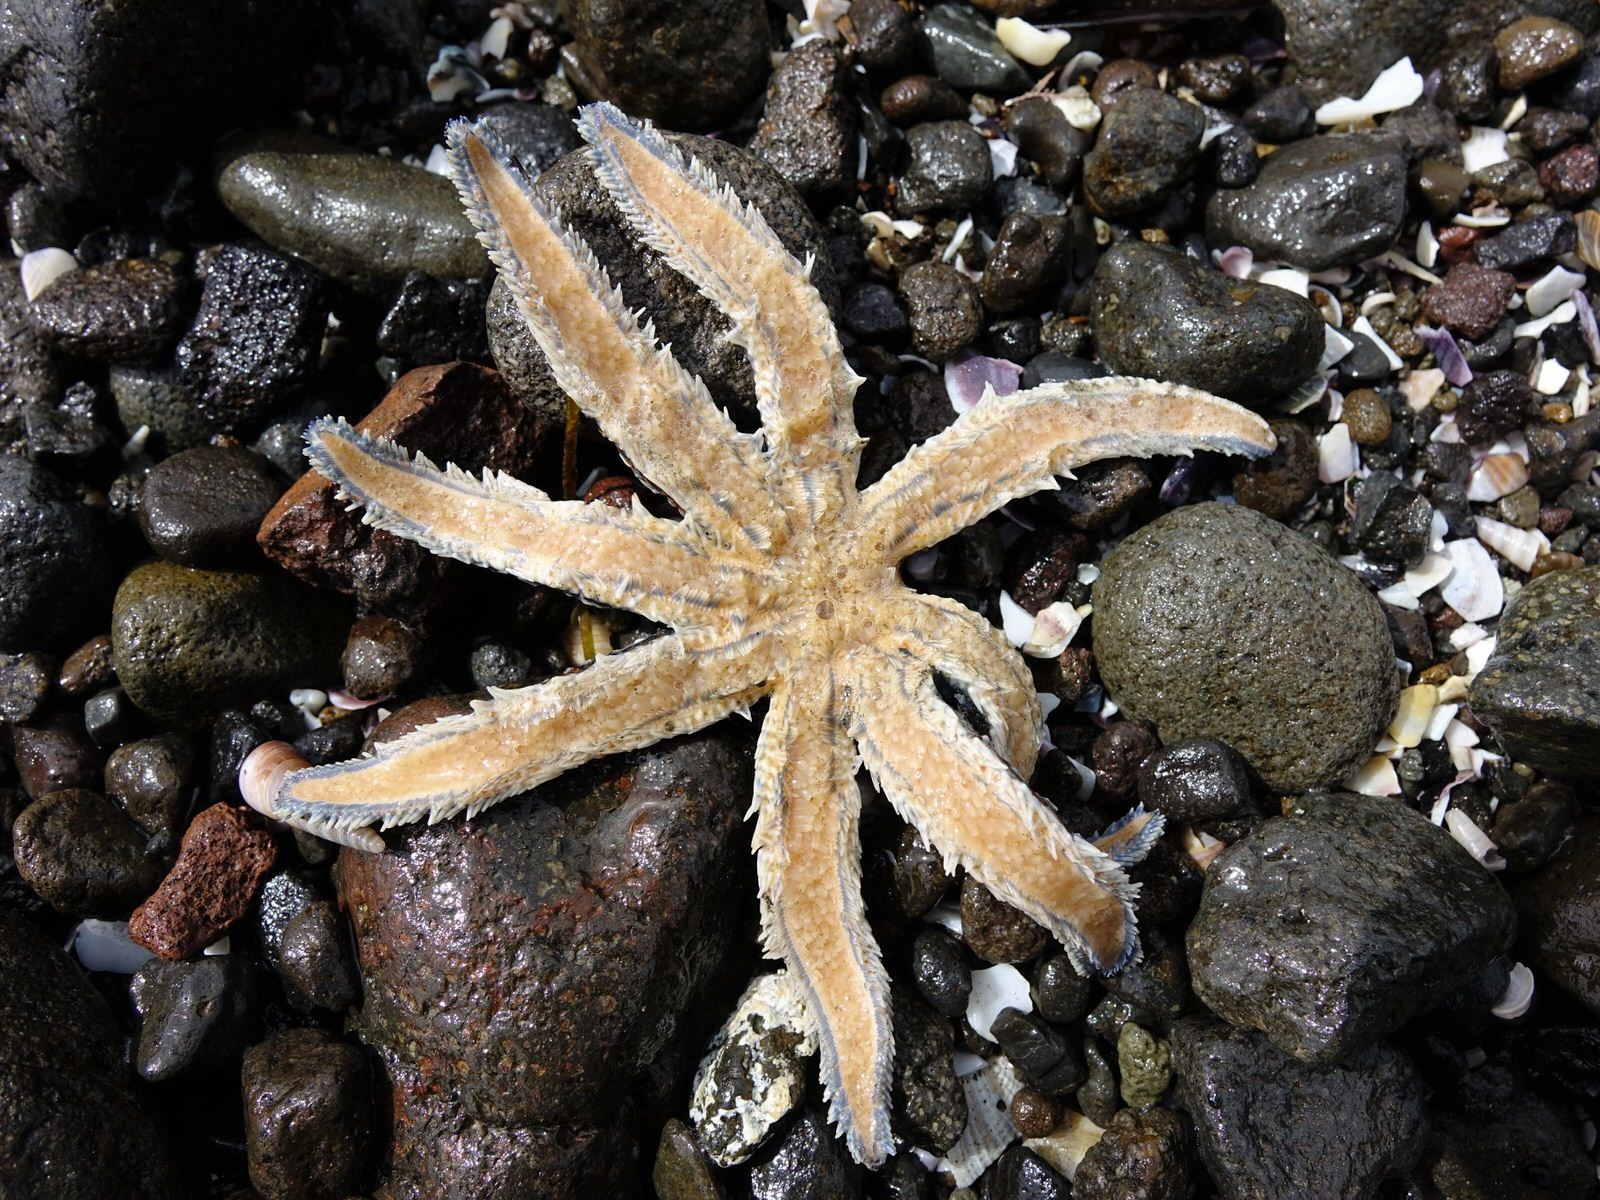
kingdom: Animalia
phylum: Echinodermata
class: Asteroidea
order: Forcipulatida
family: Asteriidae
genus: Coscinasterias
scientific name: Coscinasterias muricata
